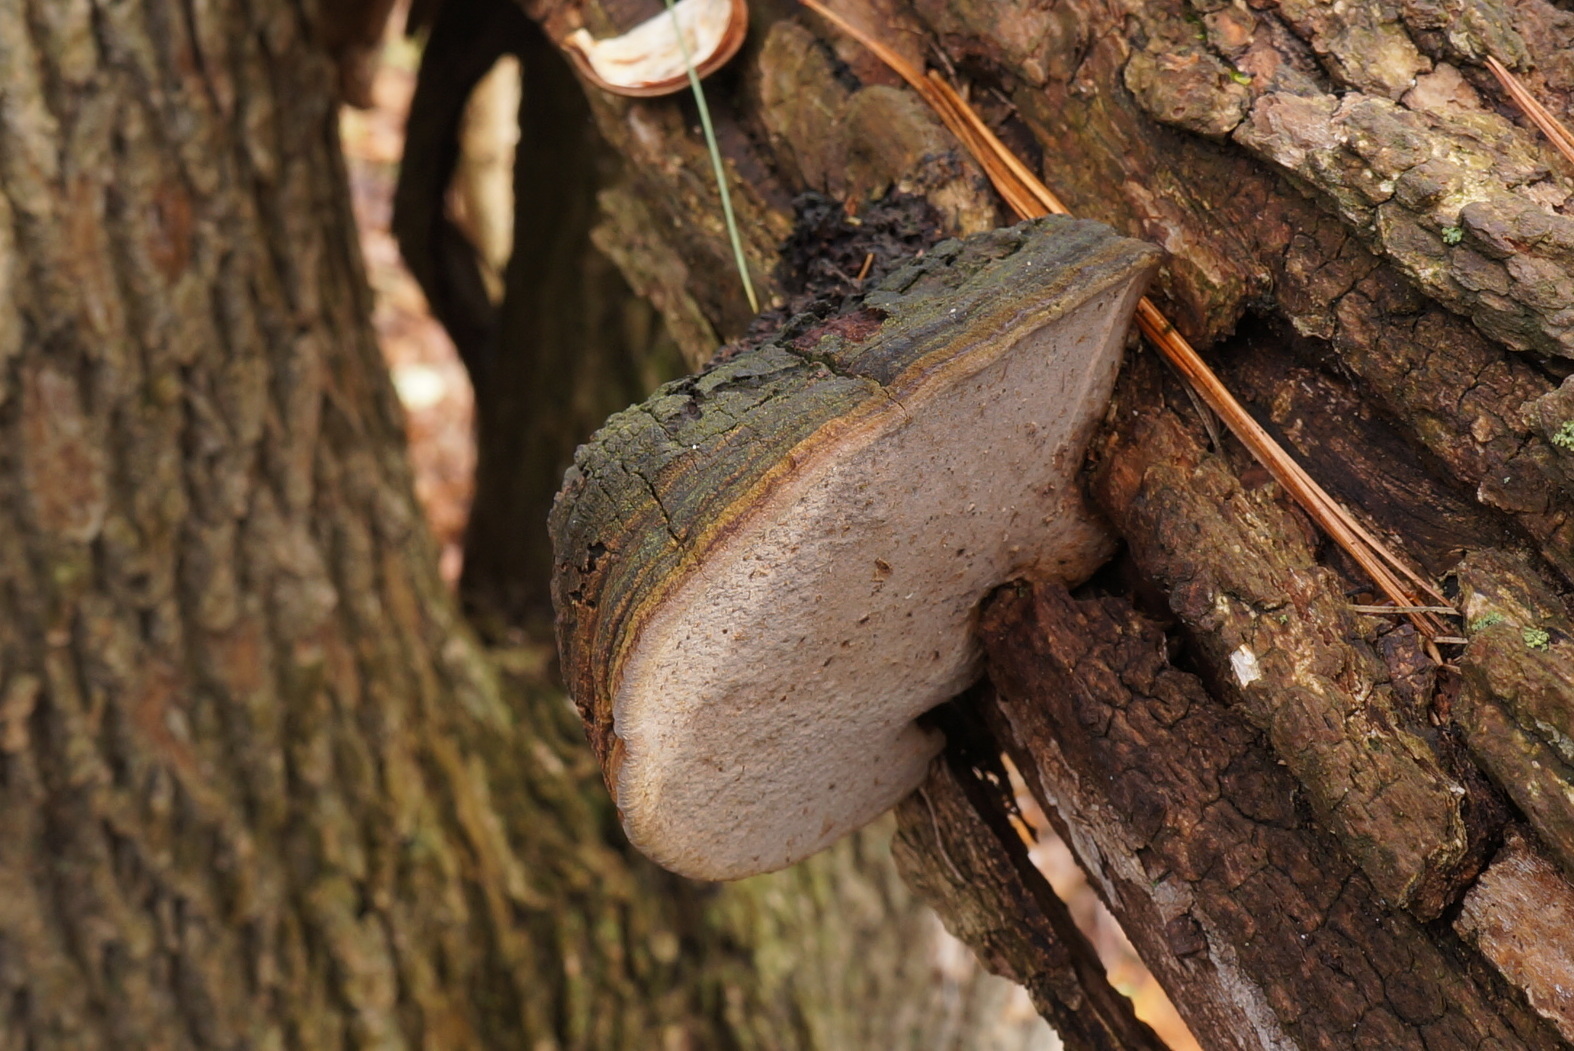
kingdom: Fungi
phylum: Basidiomycota
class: Agaricomycetes
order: Hymenochaetales
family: Hymenochaetaceae
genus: Phellinus
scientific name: Phellinus robiniae
